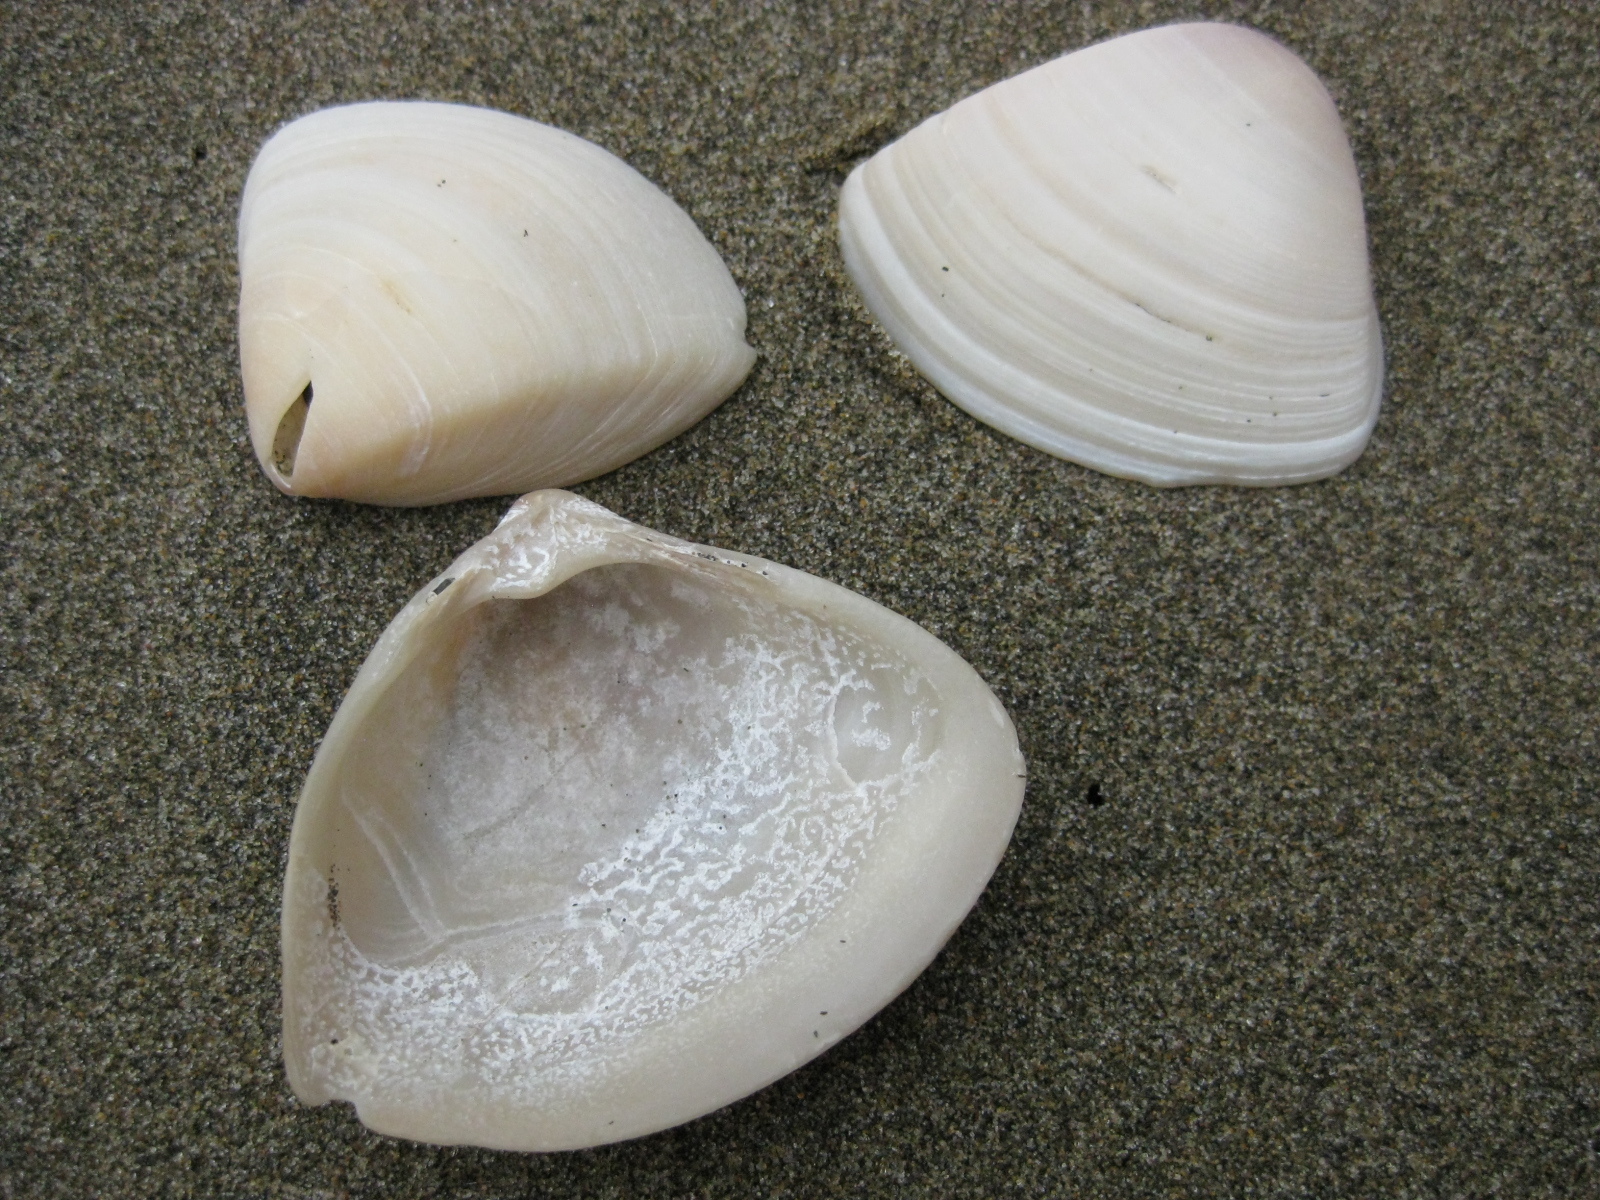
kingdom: Animalia
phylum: Mollusca
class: Bivalvia
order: Venerida
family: Mactridae
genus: Crassula
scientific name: Crassula aequilatera
